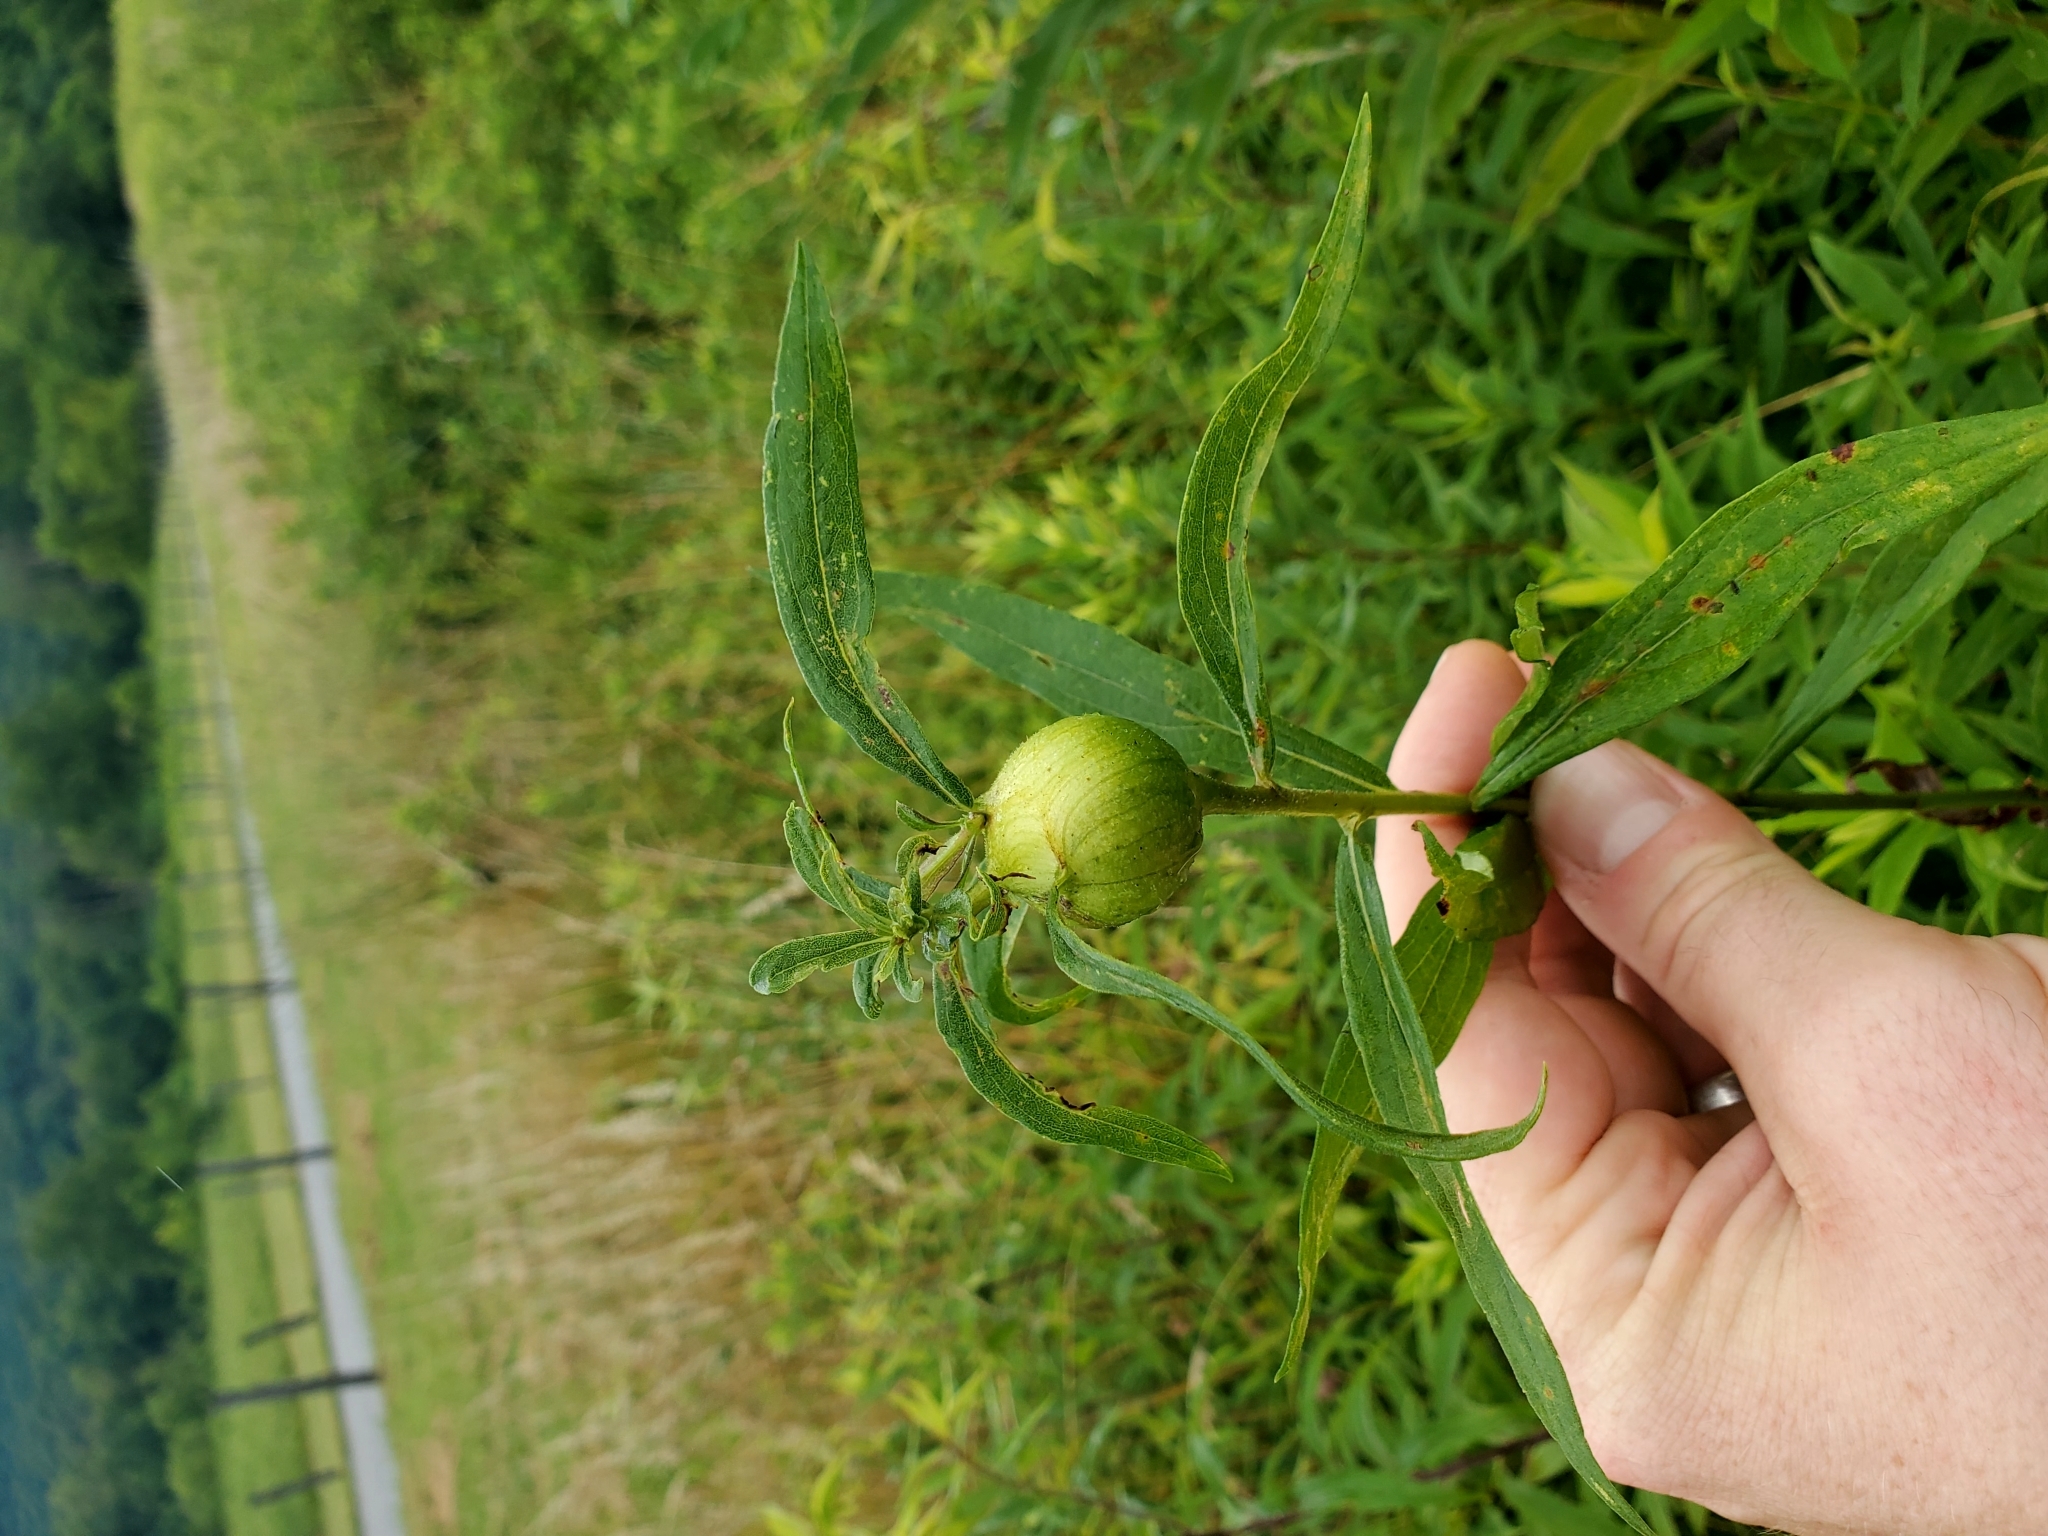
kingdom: Animalia
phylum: Arthropoda
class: Insecta
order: Diptera
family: Tephritidae
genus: Eurosta
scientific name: Eurosta solidaginis
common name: Goldenrod gall fly
